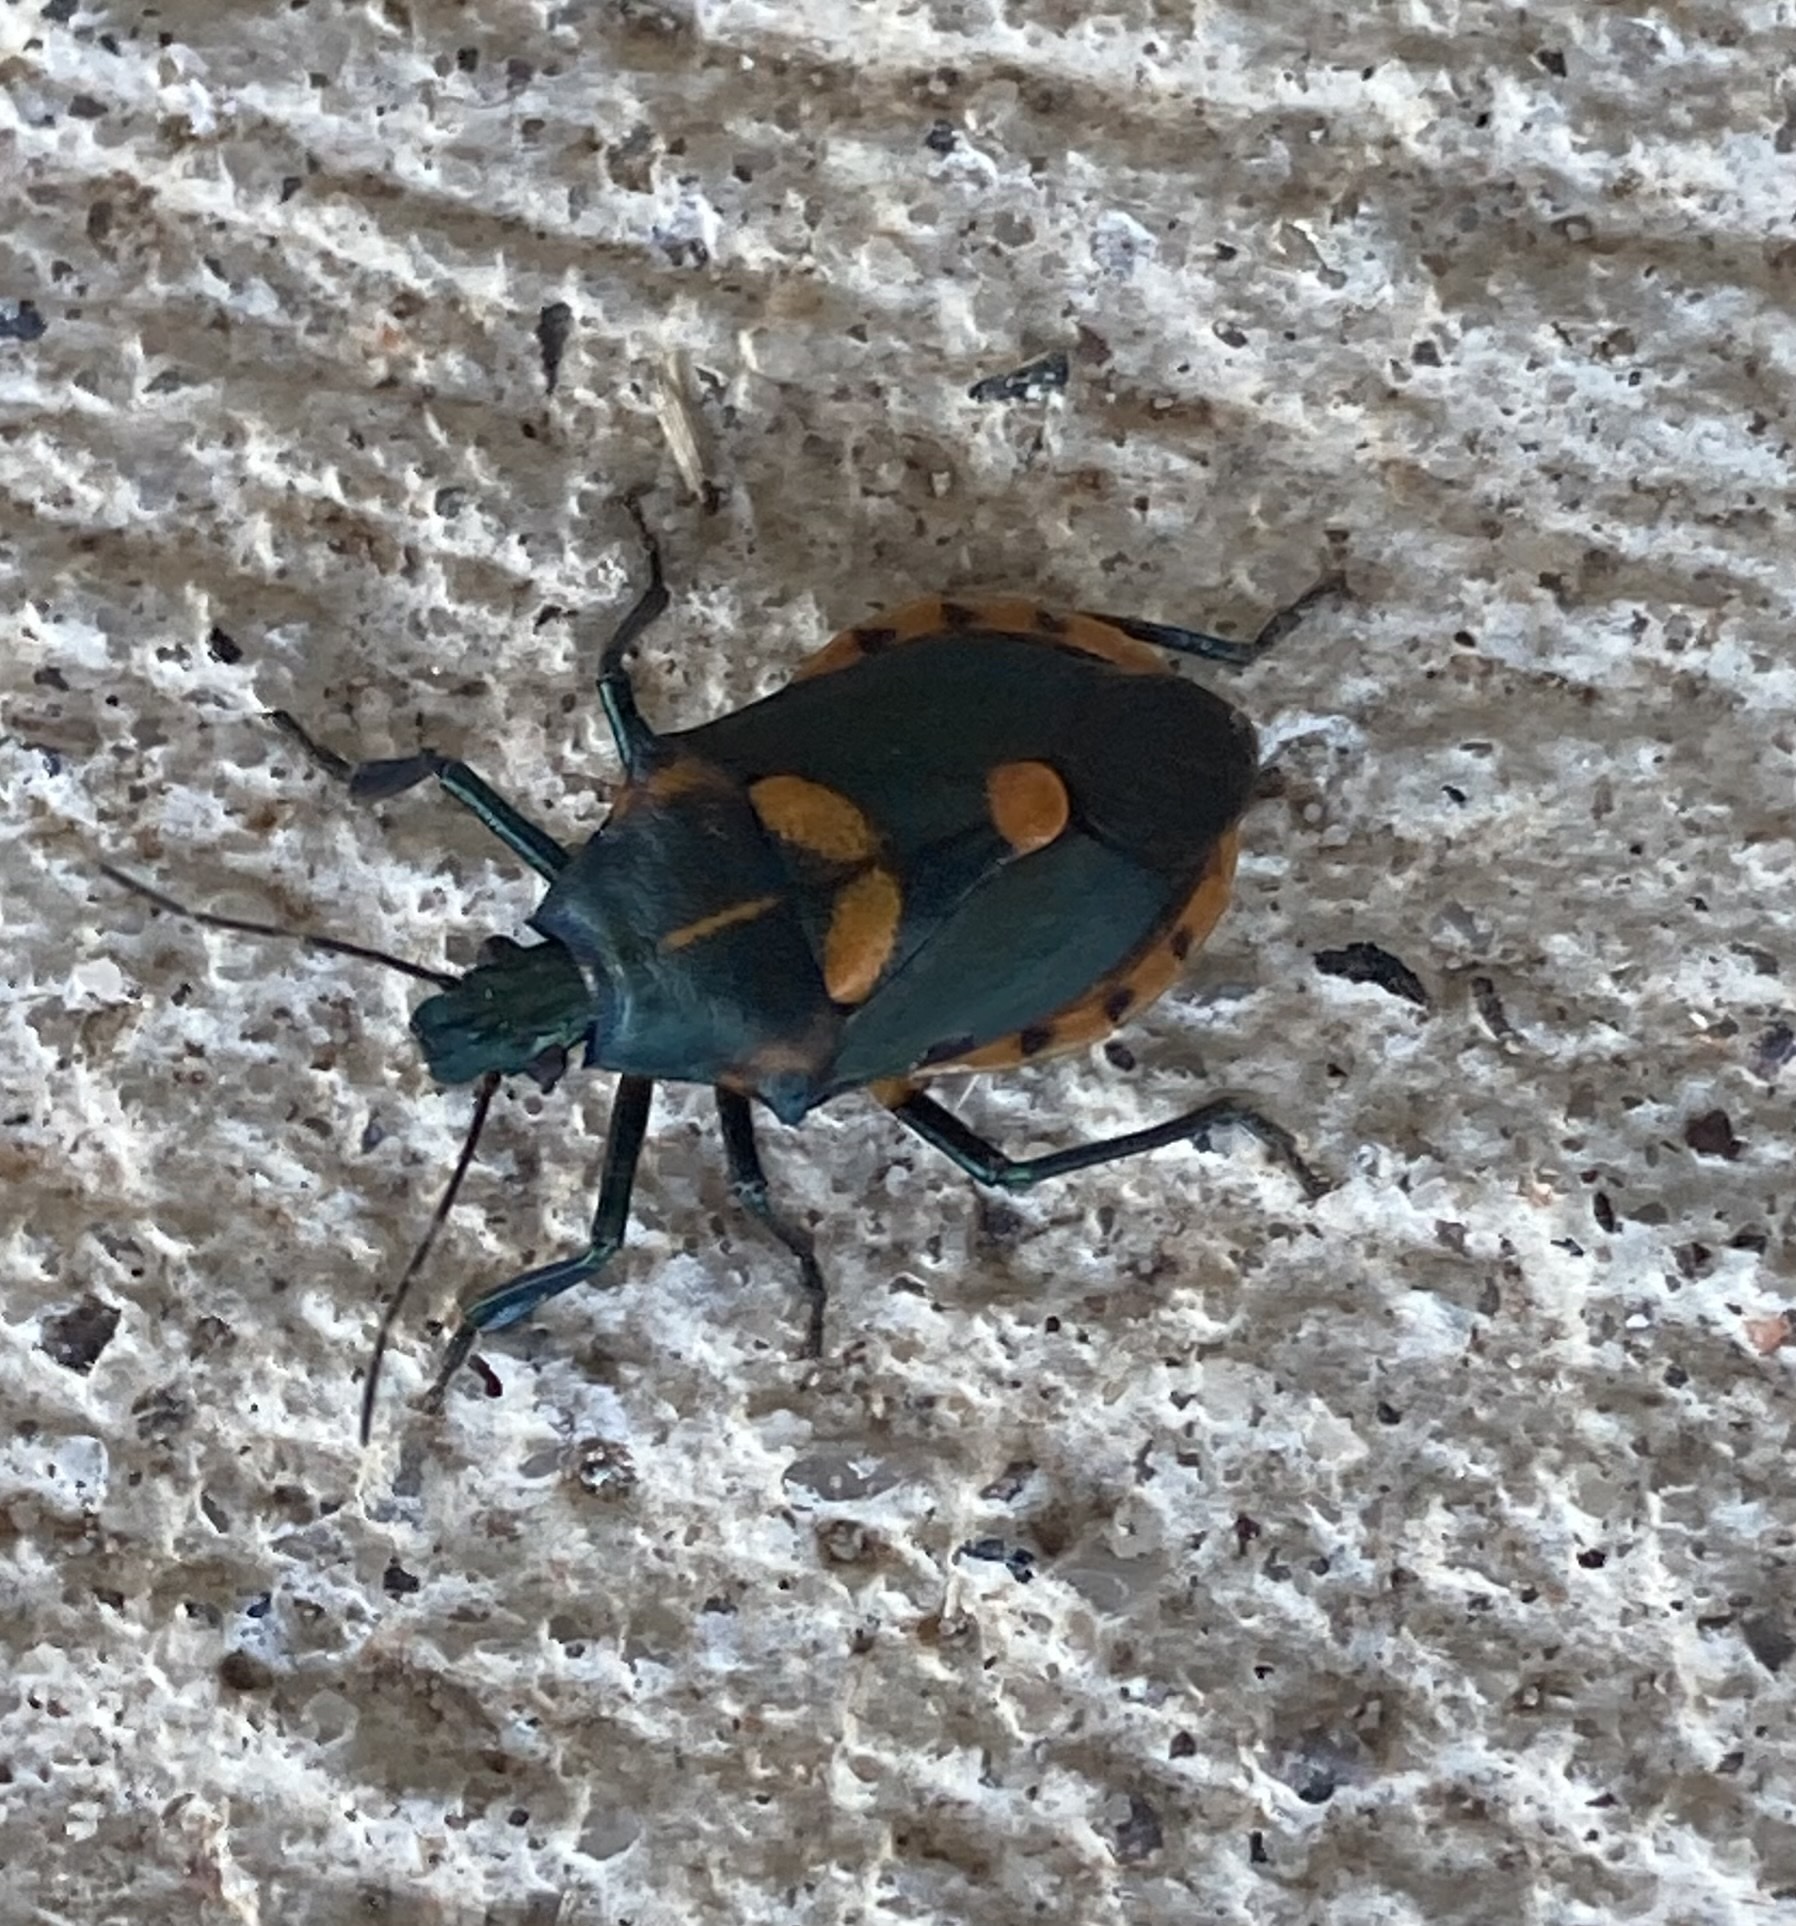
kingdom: Animalia
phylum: Arthropoda
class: Insecta
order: Hemiptera
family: Pentatomidae
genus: Euthyrhynchus
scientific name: Euthyrhynchus floridanus
